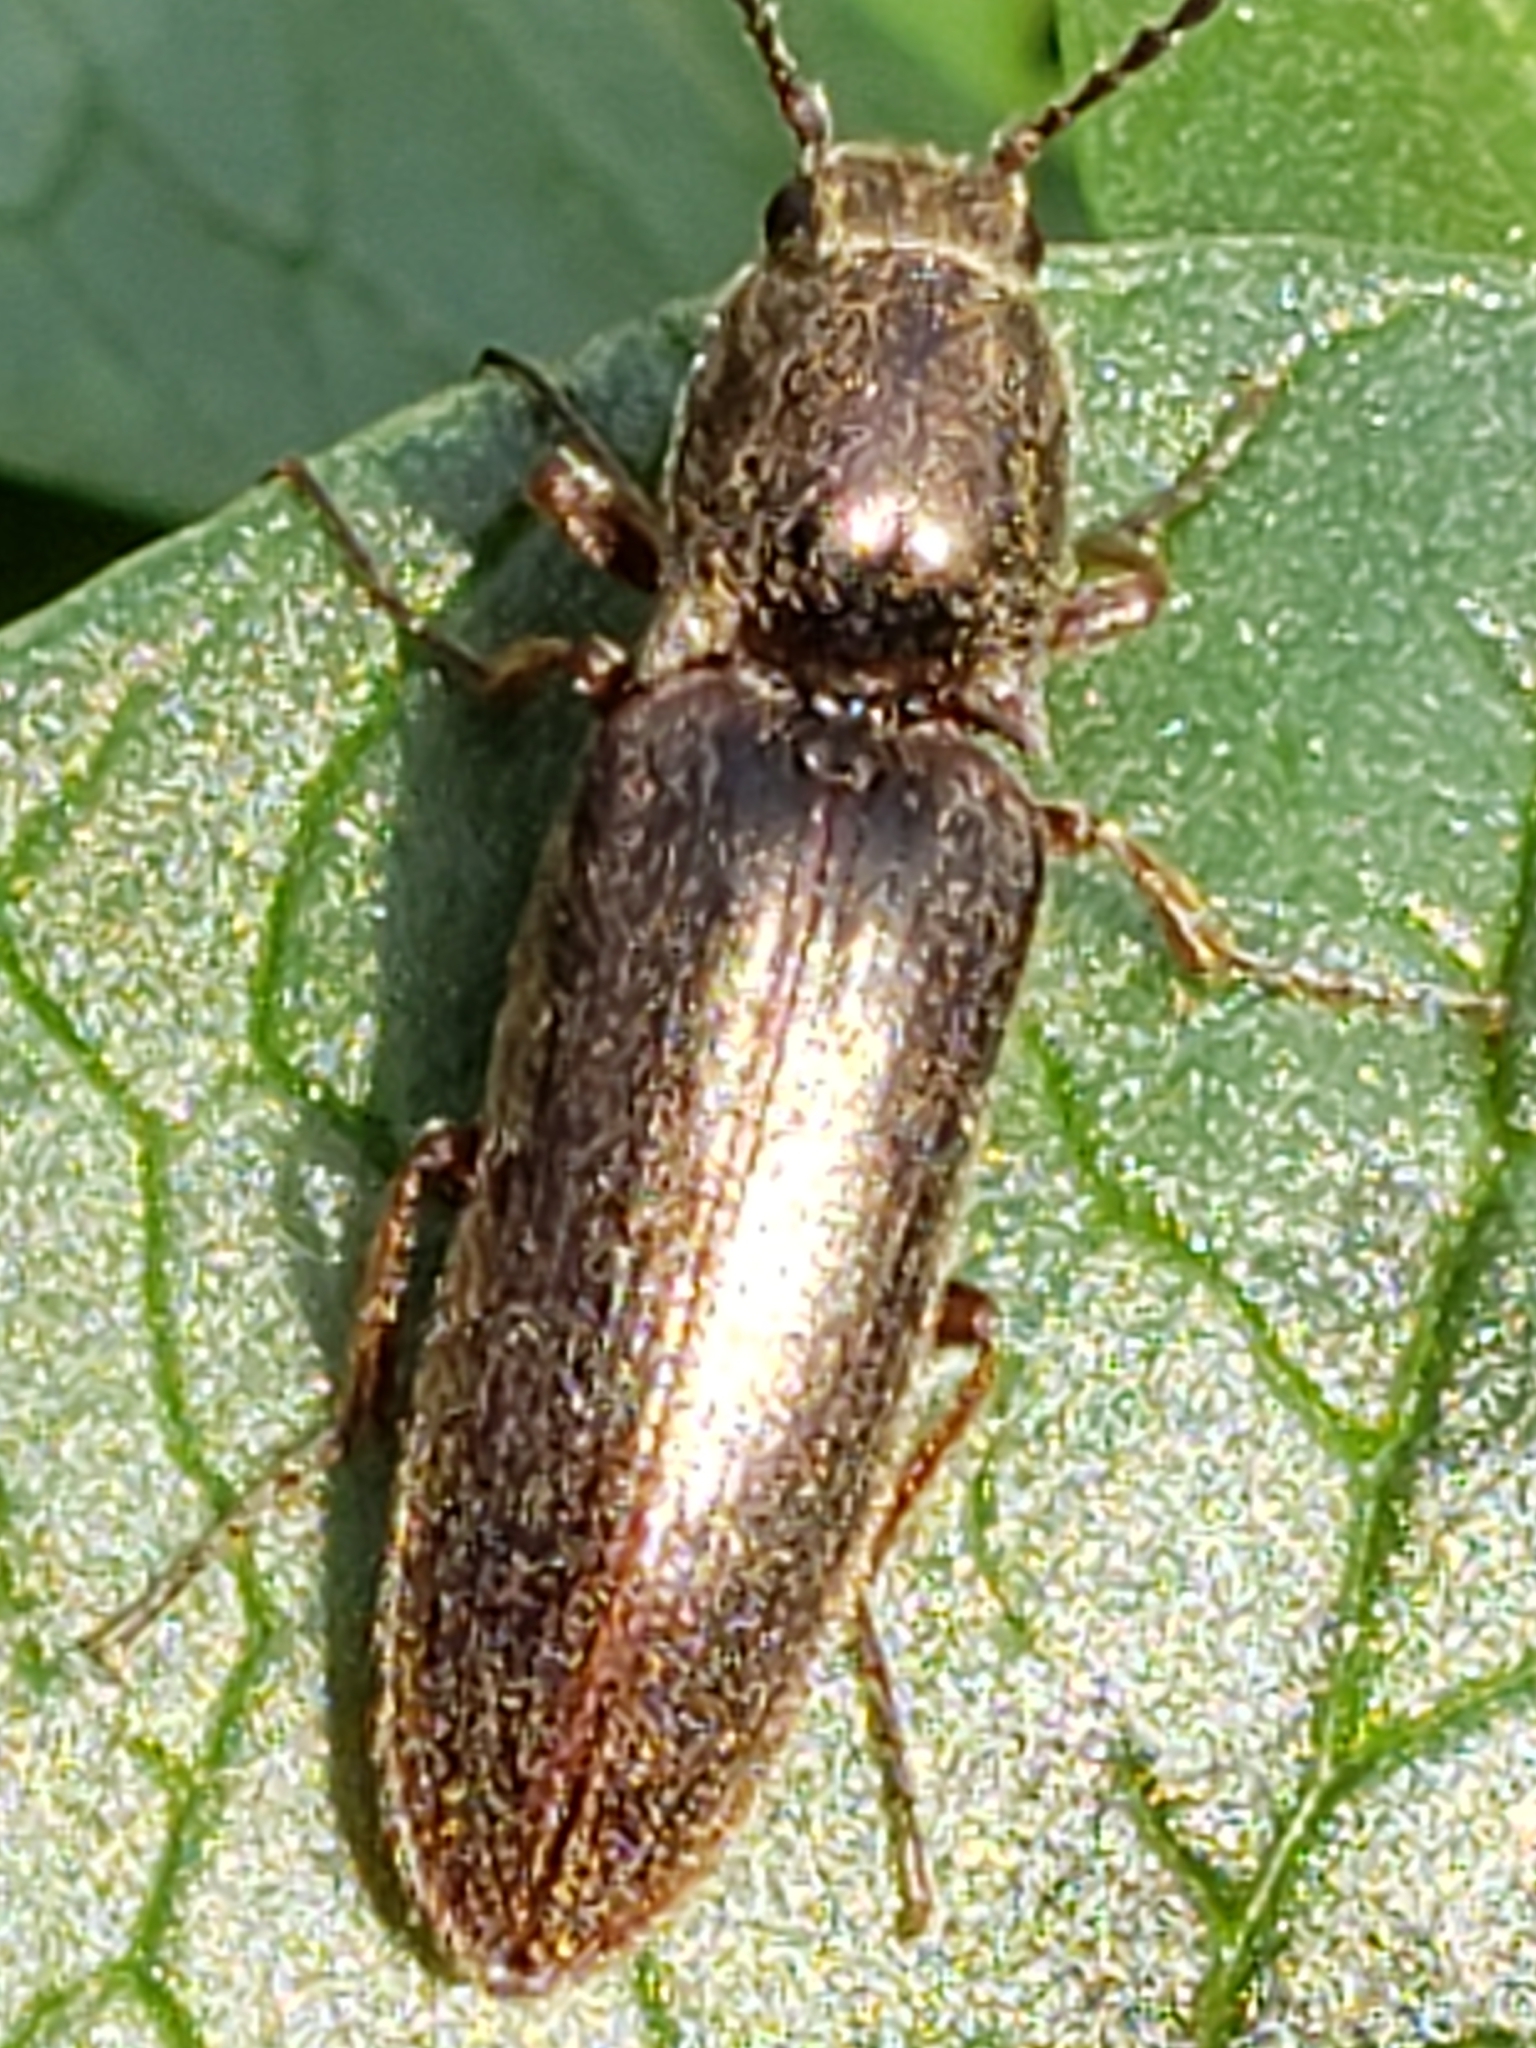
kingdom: Animalia
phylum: Arthropoda
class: Insecta
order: Coleoptera
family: Elateridae
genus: Sylvanelater
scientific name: Sylvanelater cylindriformis
